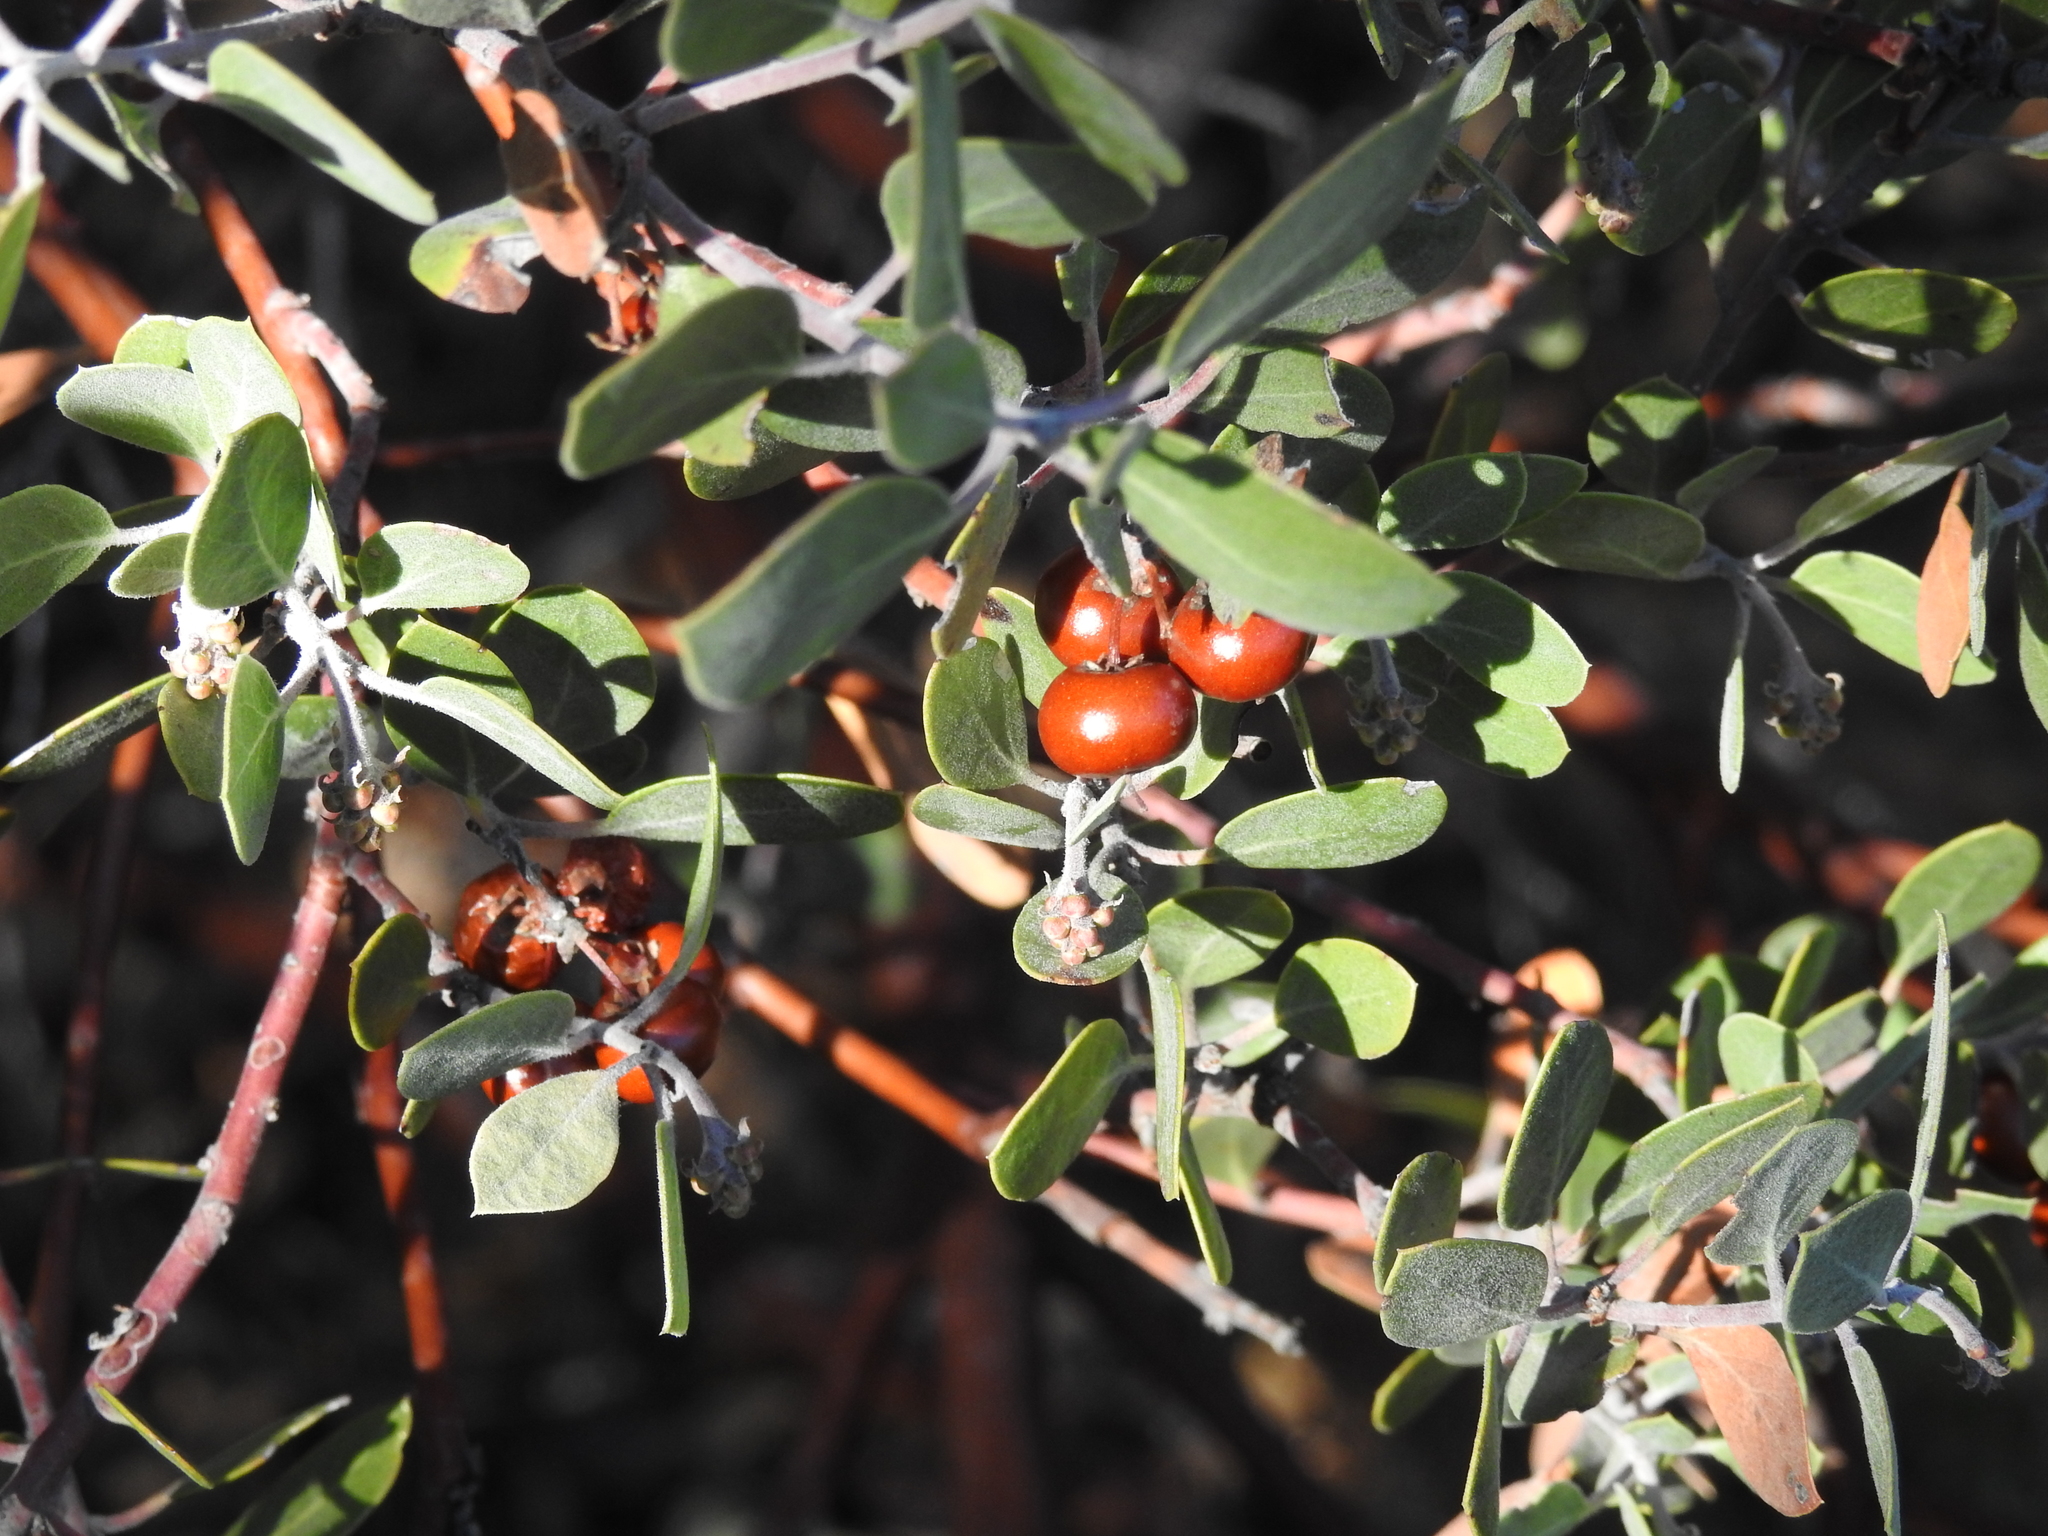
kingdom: Plantae
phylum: Tracheophyta
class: Magnoliopsida
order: Ericales
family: Ericaceae
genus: Arctostaphylos
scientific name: Arctostaphylos pungens
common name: Mexican manzanita
